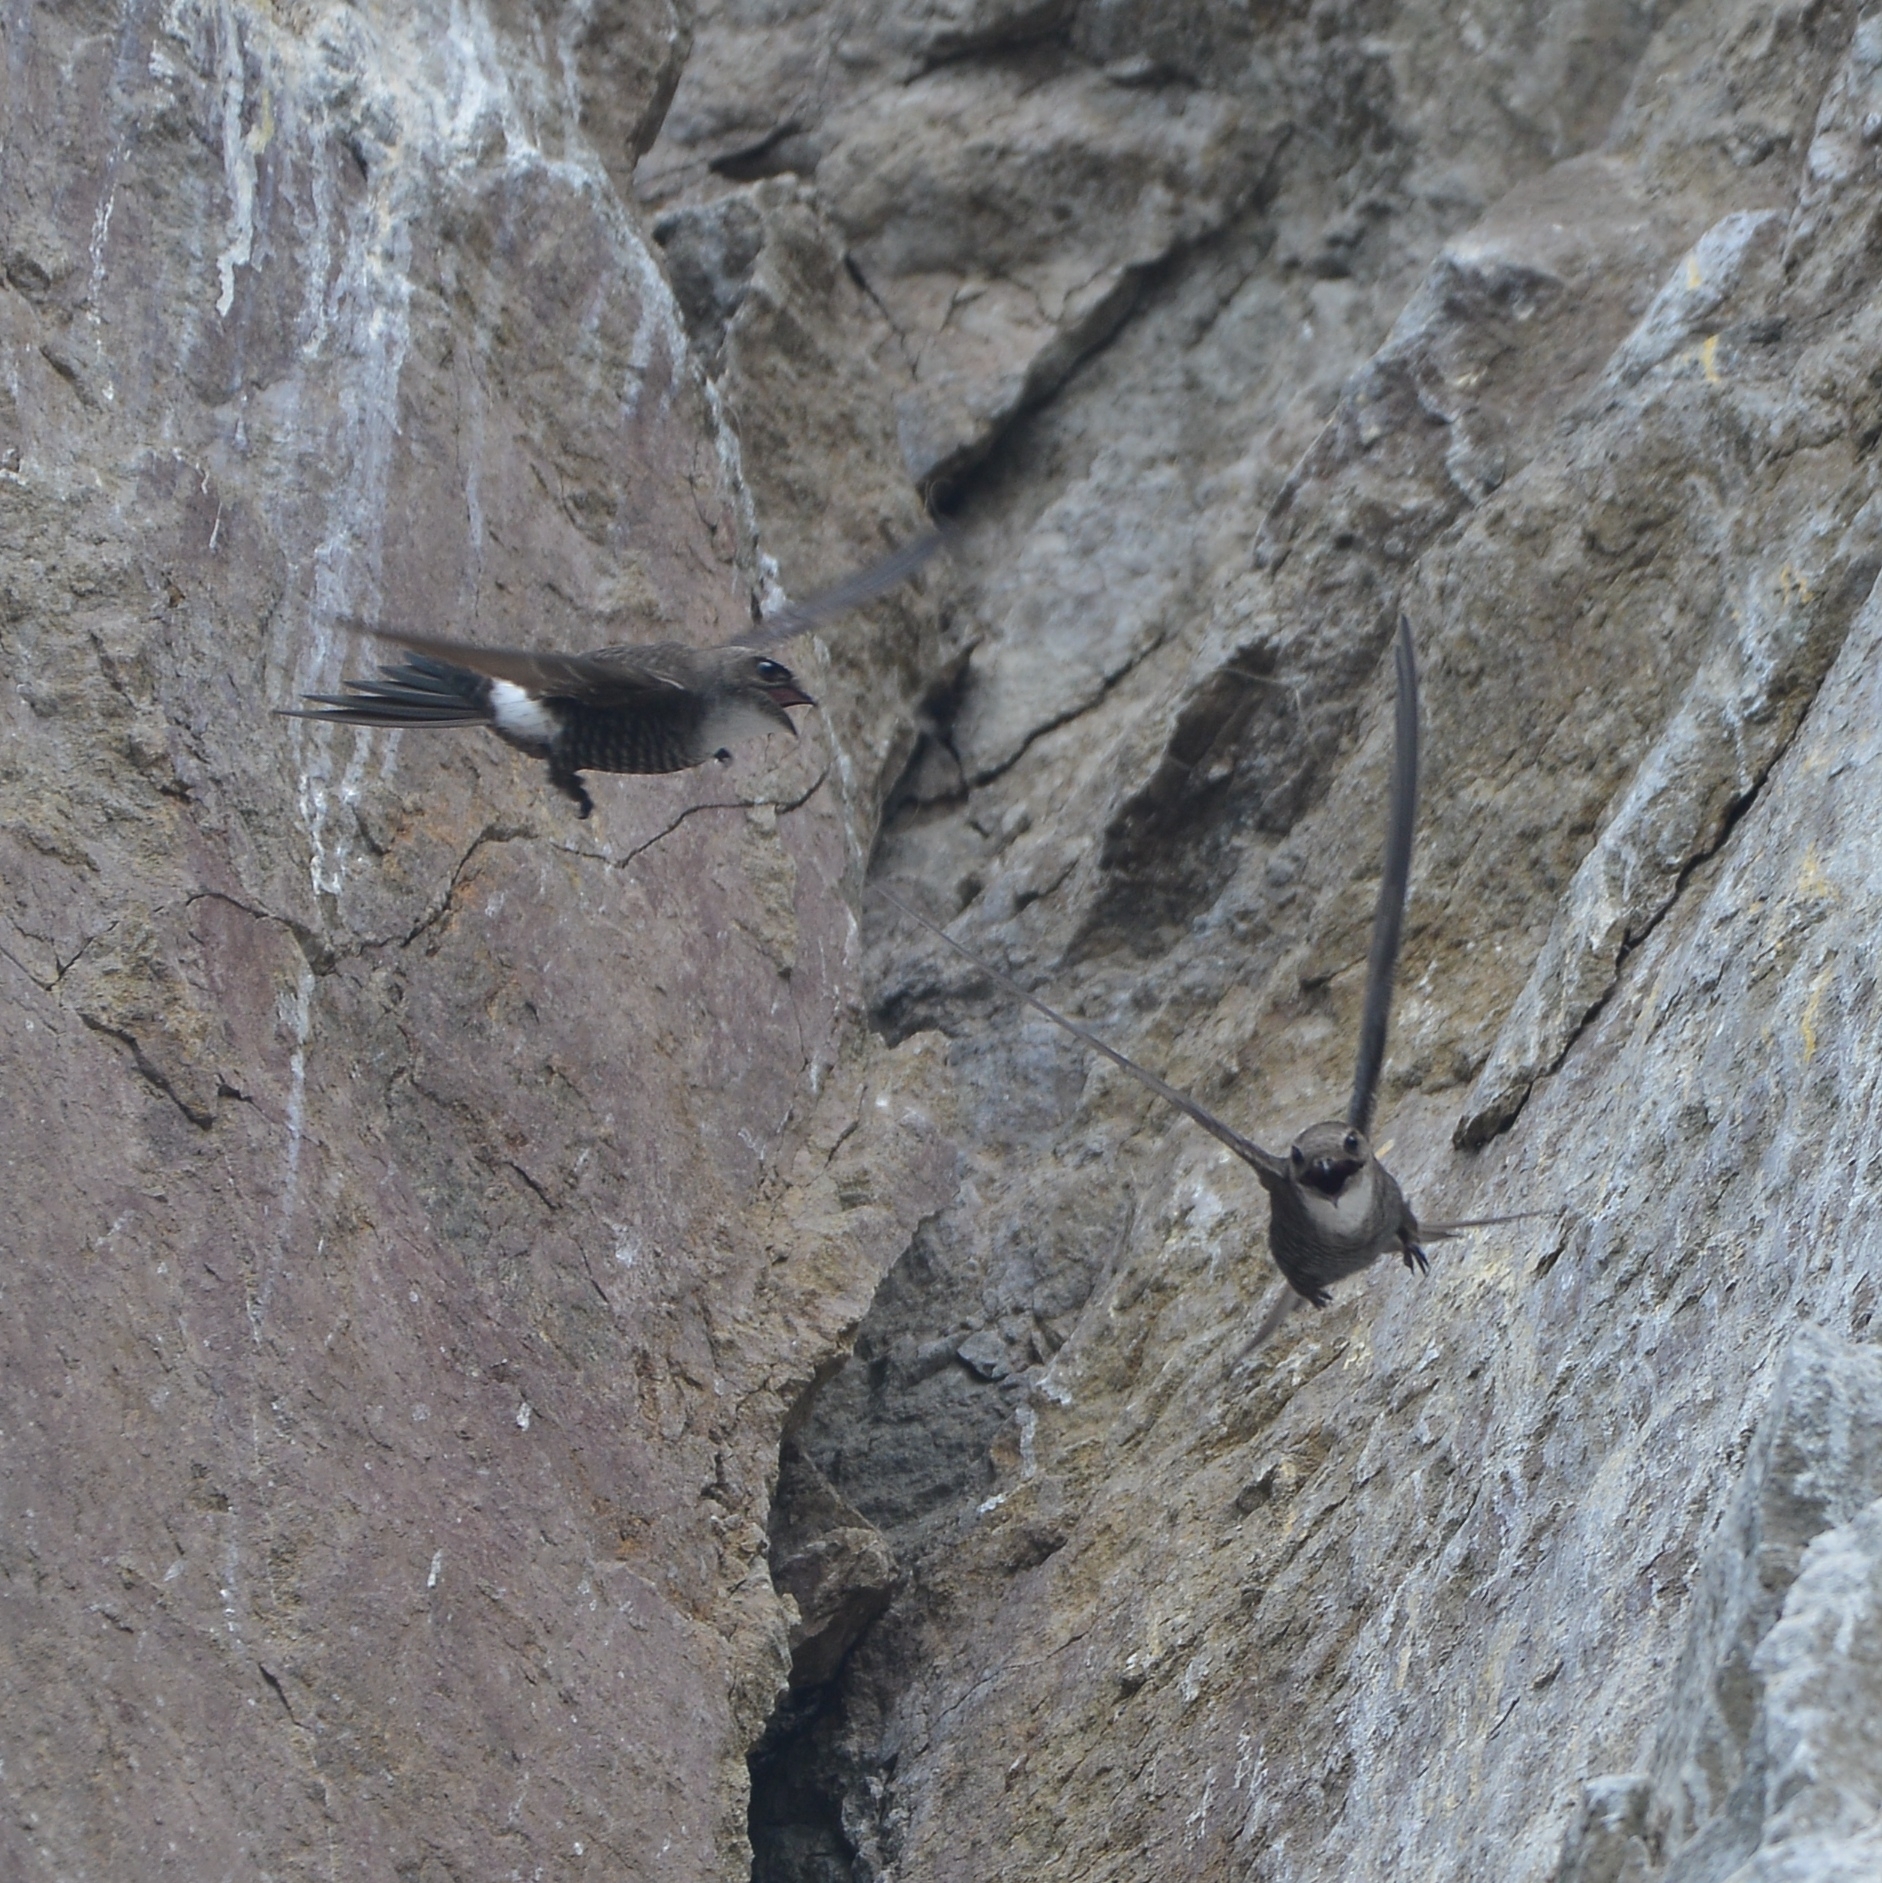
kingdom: Animalia
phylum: Chordata
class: Aves
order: Apodiformes
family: Apodidae
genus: Apus
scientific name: Apus pacificus
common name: Pacific swift
